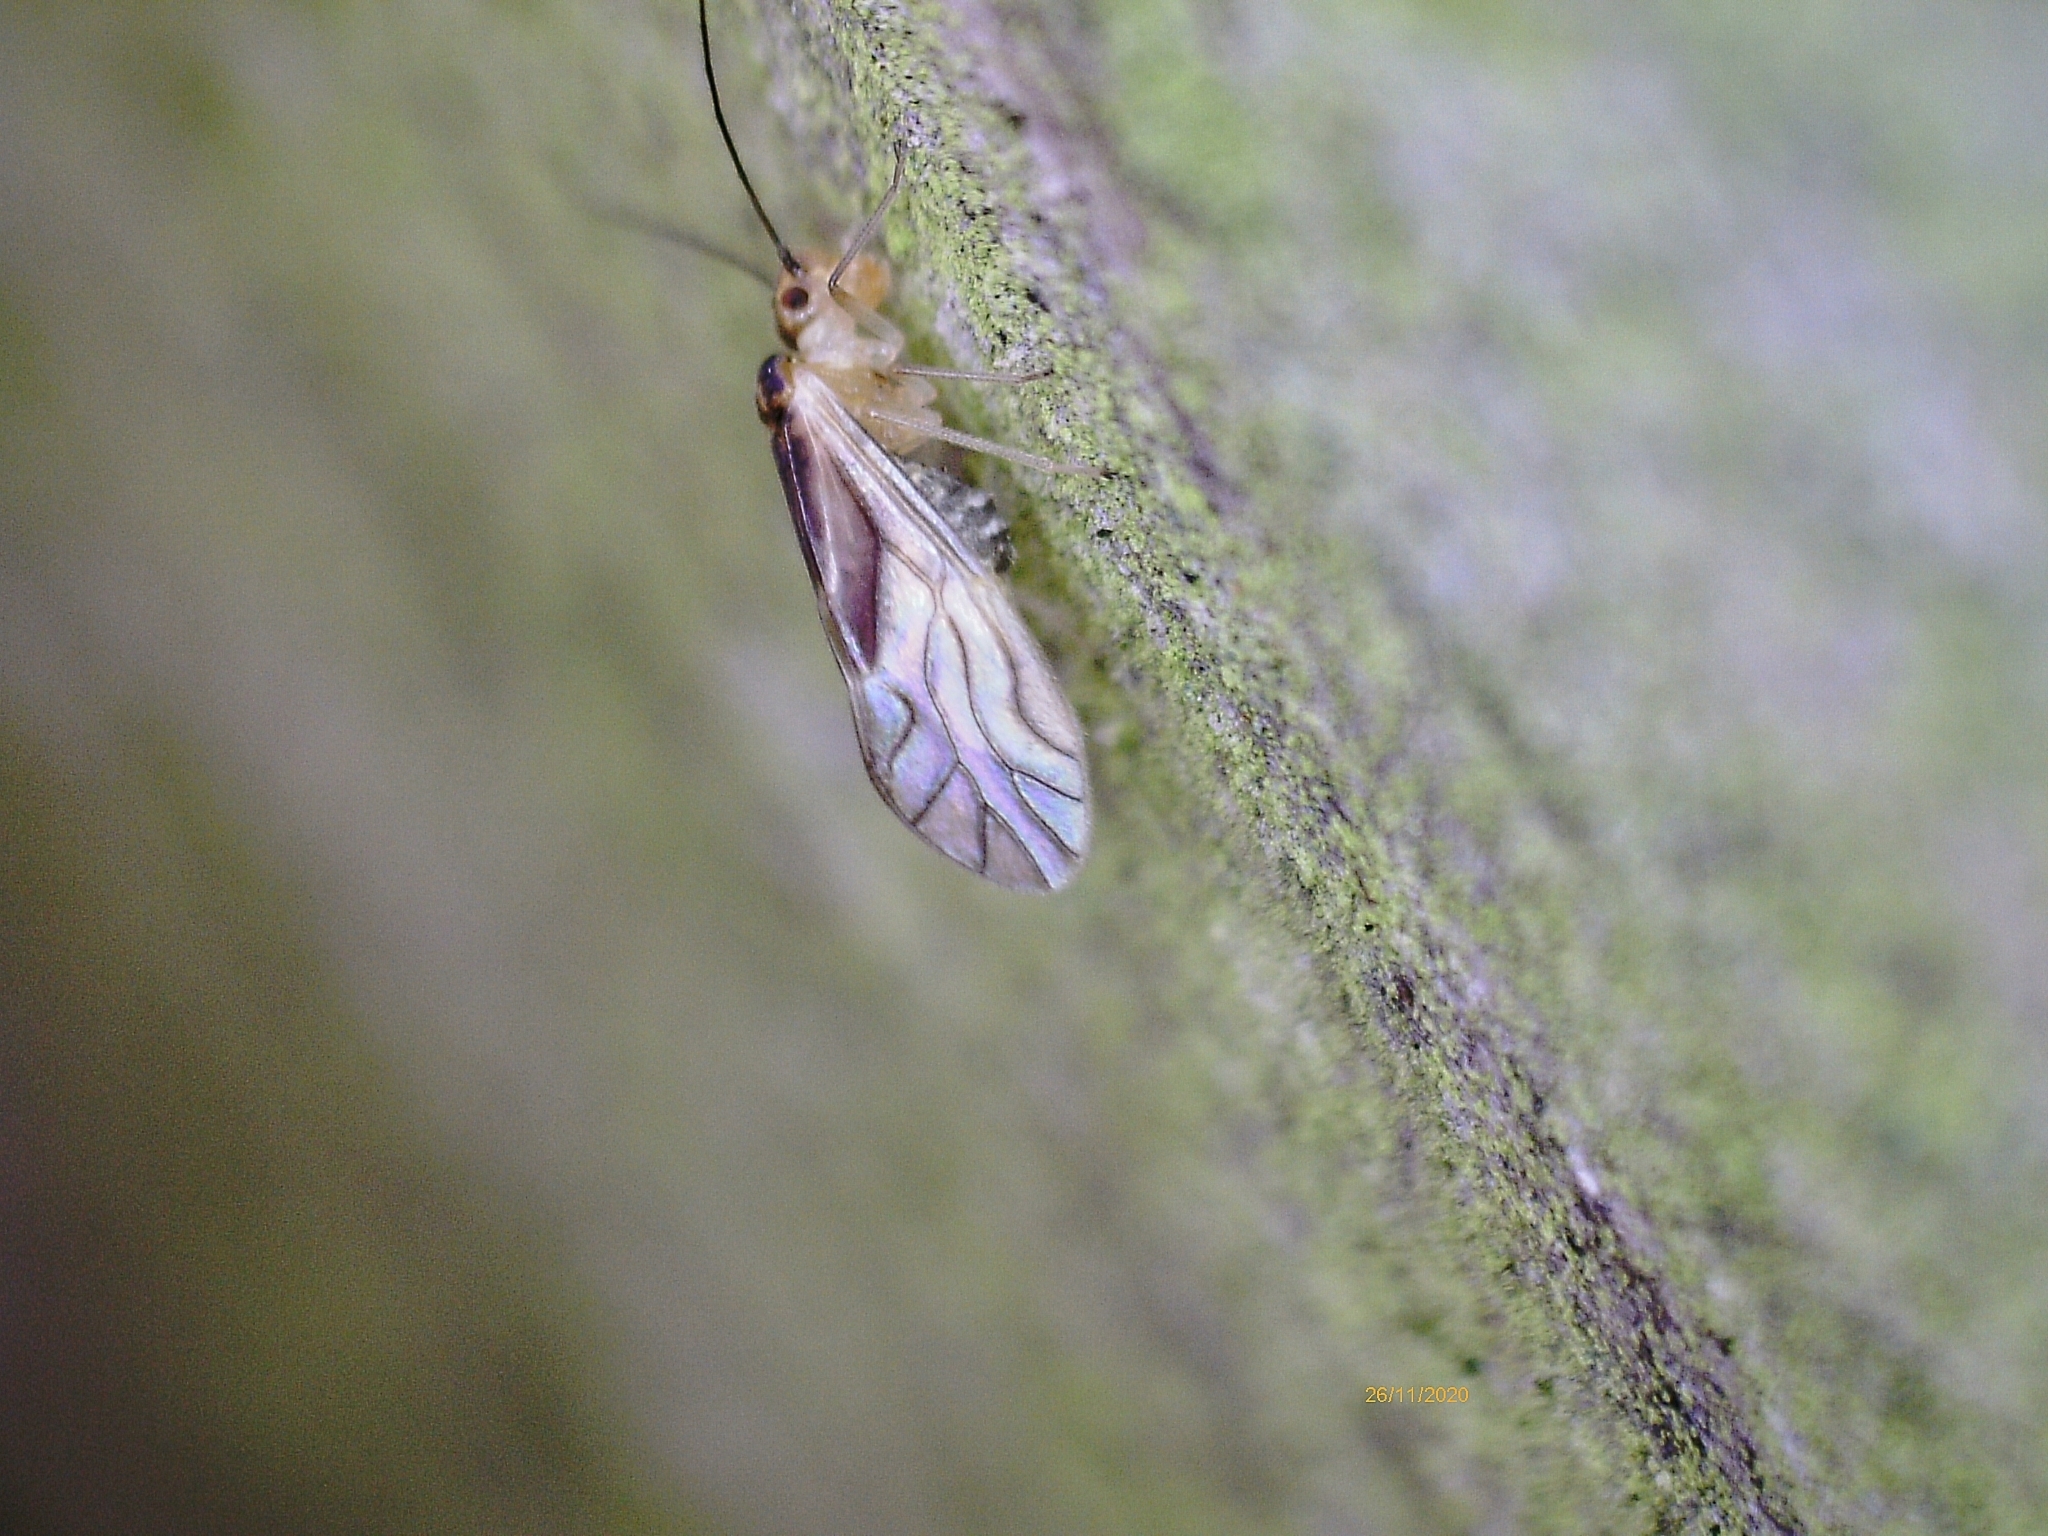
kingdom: Animalia
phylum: Arthropoda
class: Insecta
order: Psocodea
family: Caeciliusidae
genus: Valenzuela
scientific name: Valenzuela flavidus
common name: Yellow barklouse
